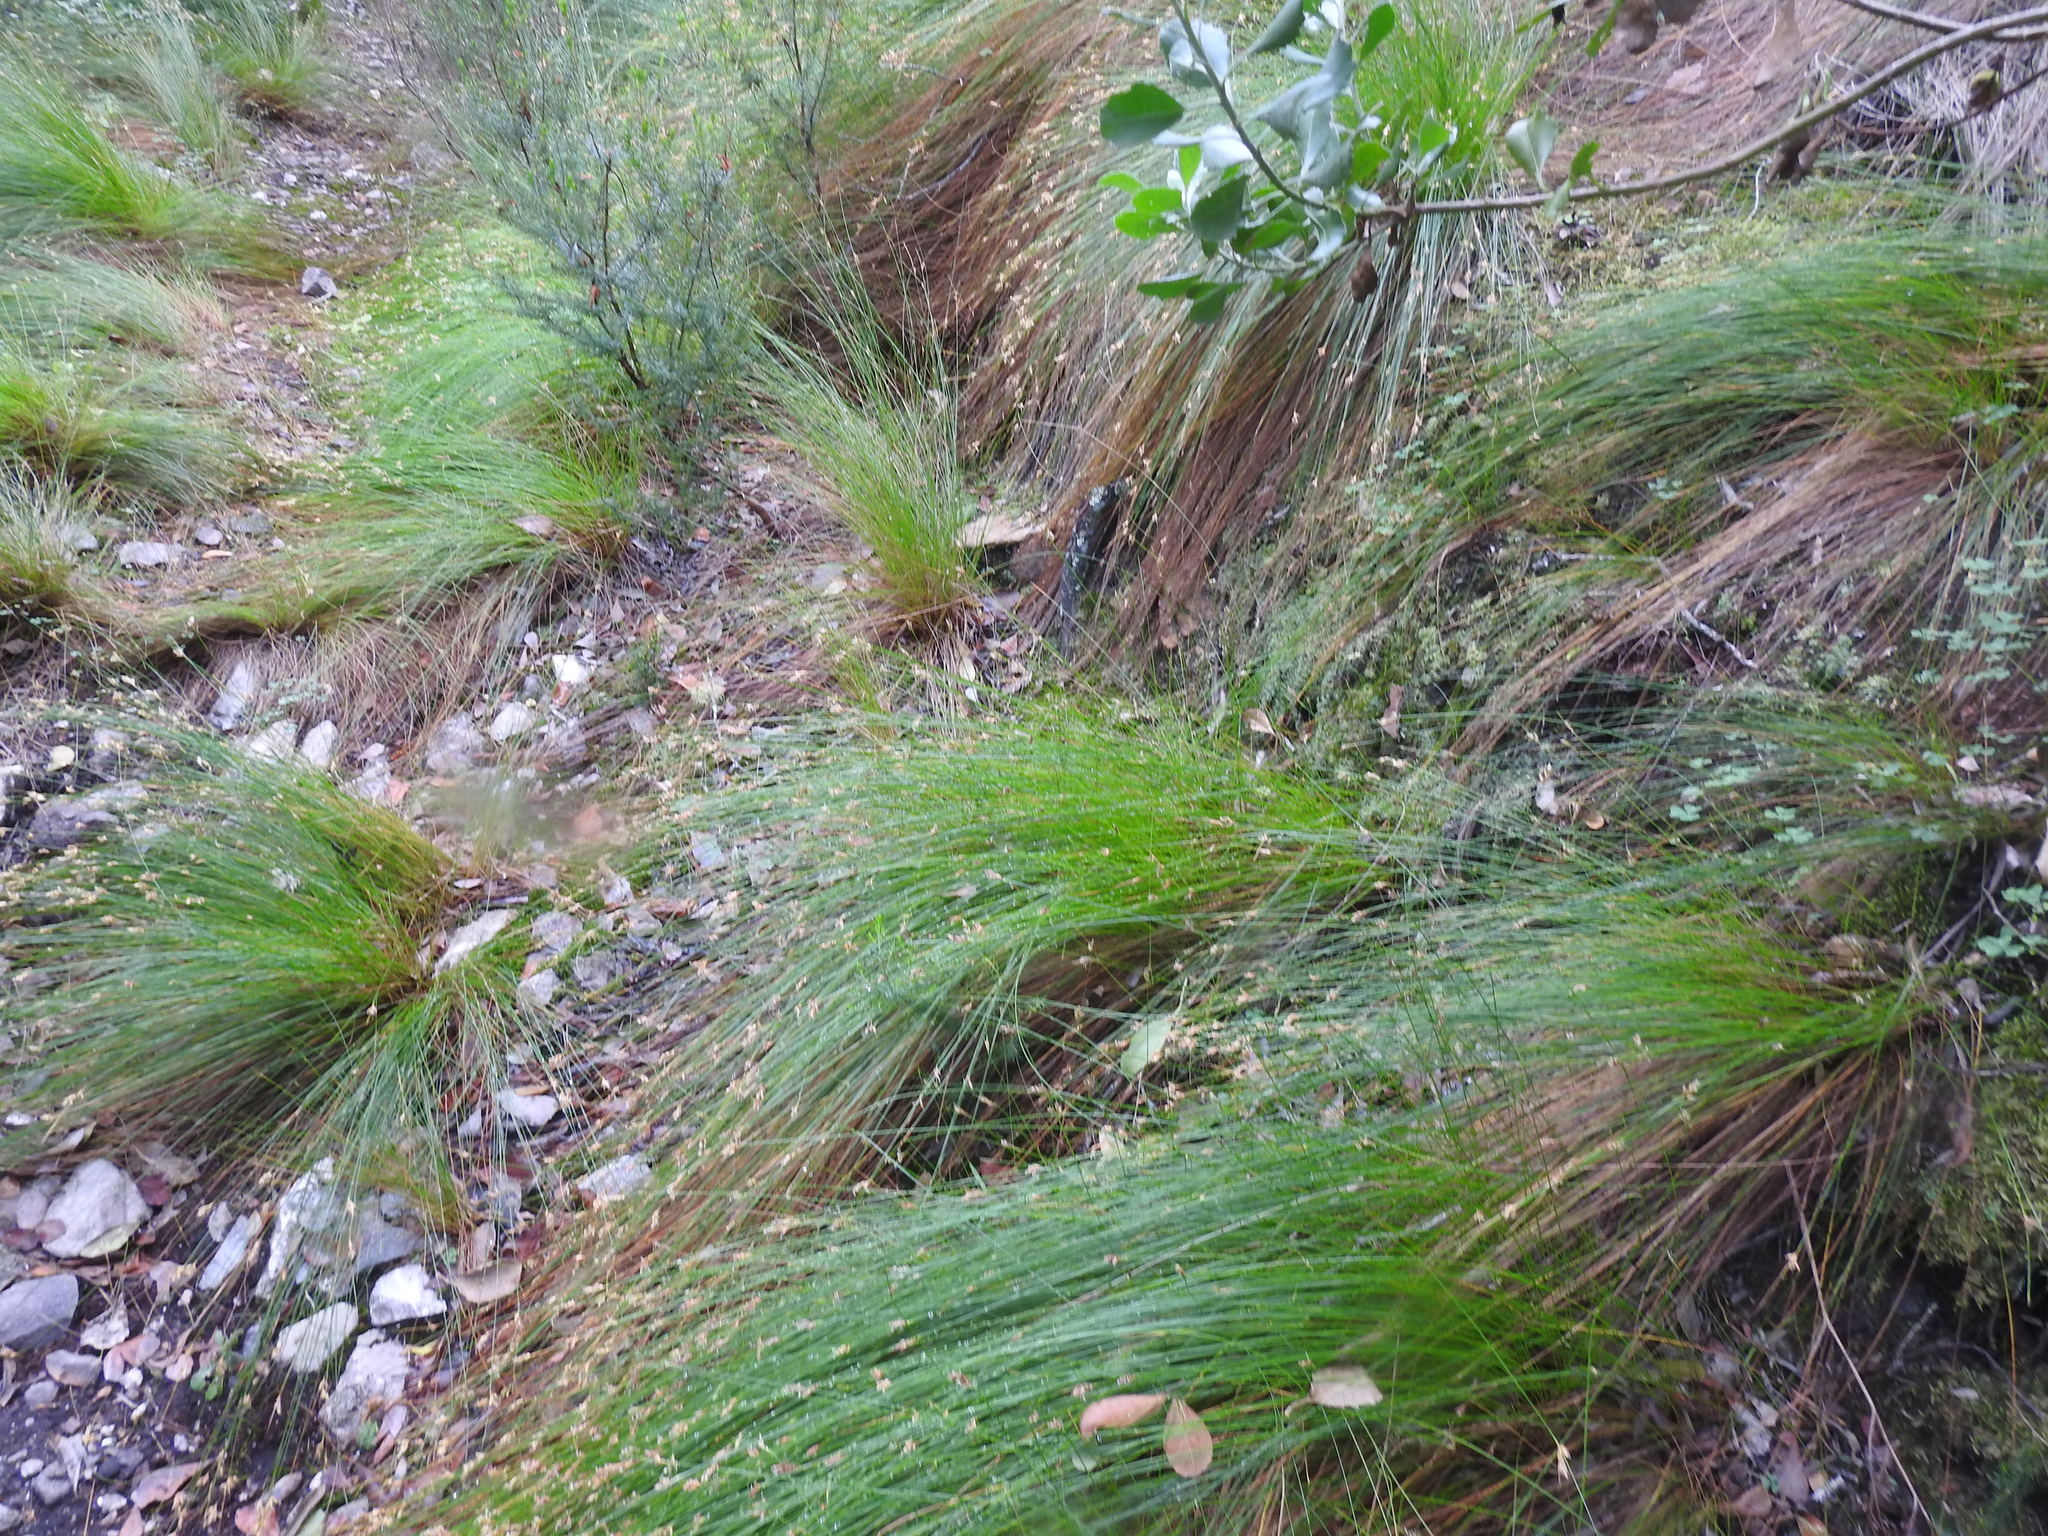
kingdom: Plantae
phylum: Tracheophyta
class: Liliopsida
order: Poales
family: Cyperaceae
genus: Ficinia
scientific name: Ficinia fascicularis
